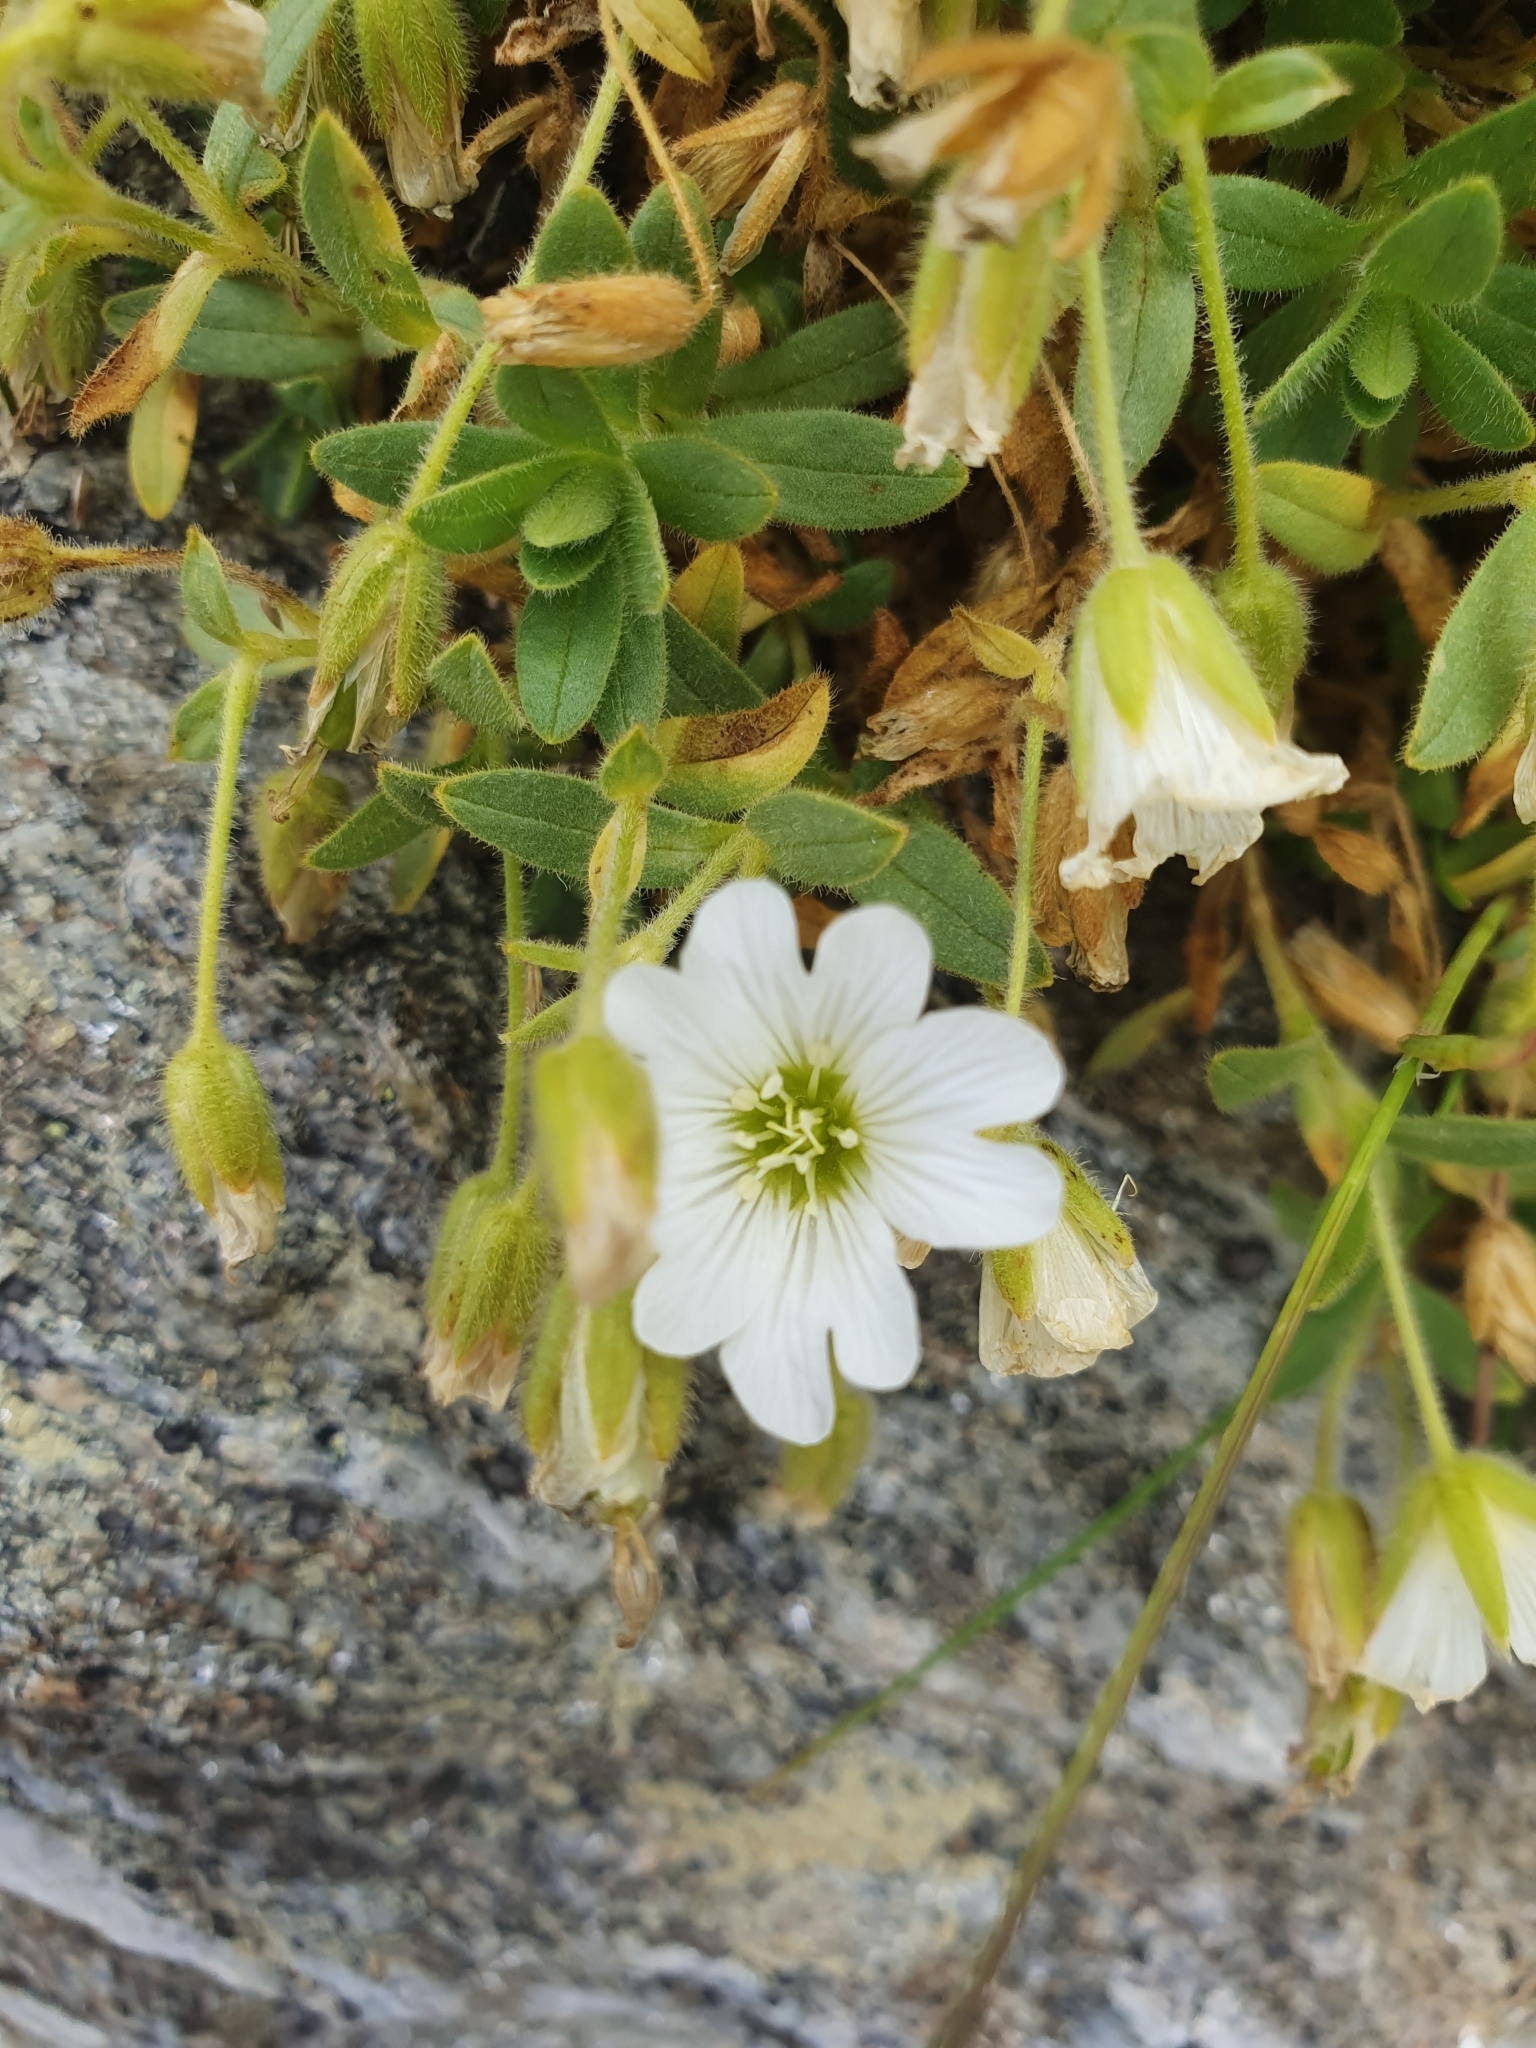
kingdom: Plantae
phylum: Tracheophyta
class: Magnoliopsida
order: Caryophyllales
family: Caryophyllaceae
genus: Cerastium
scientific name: Cerastium uniflorum
